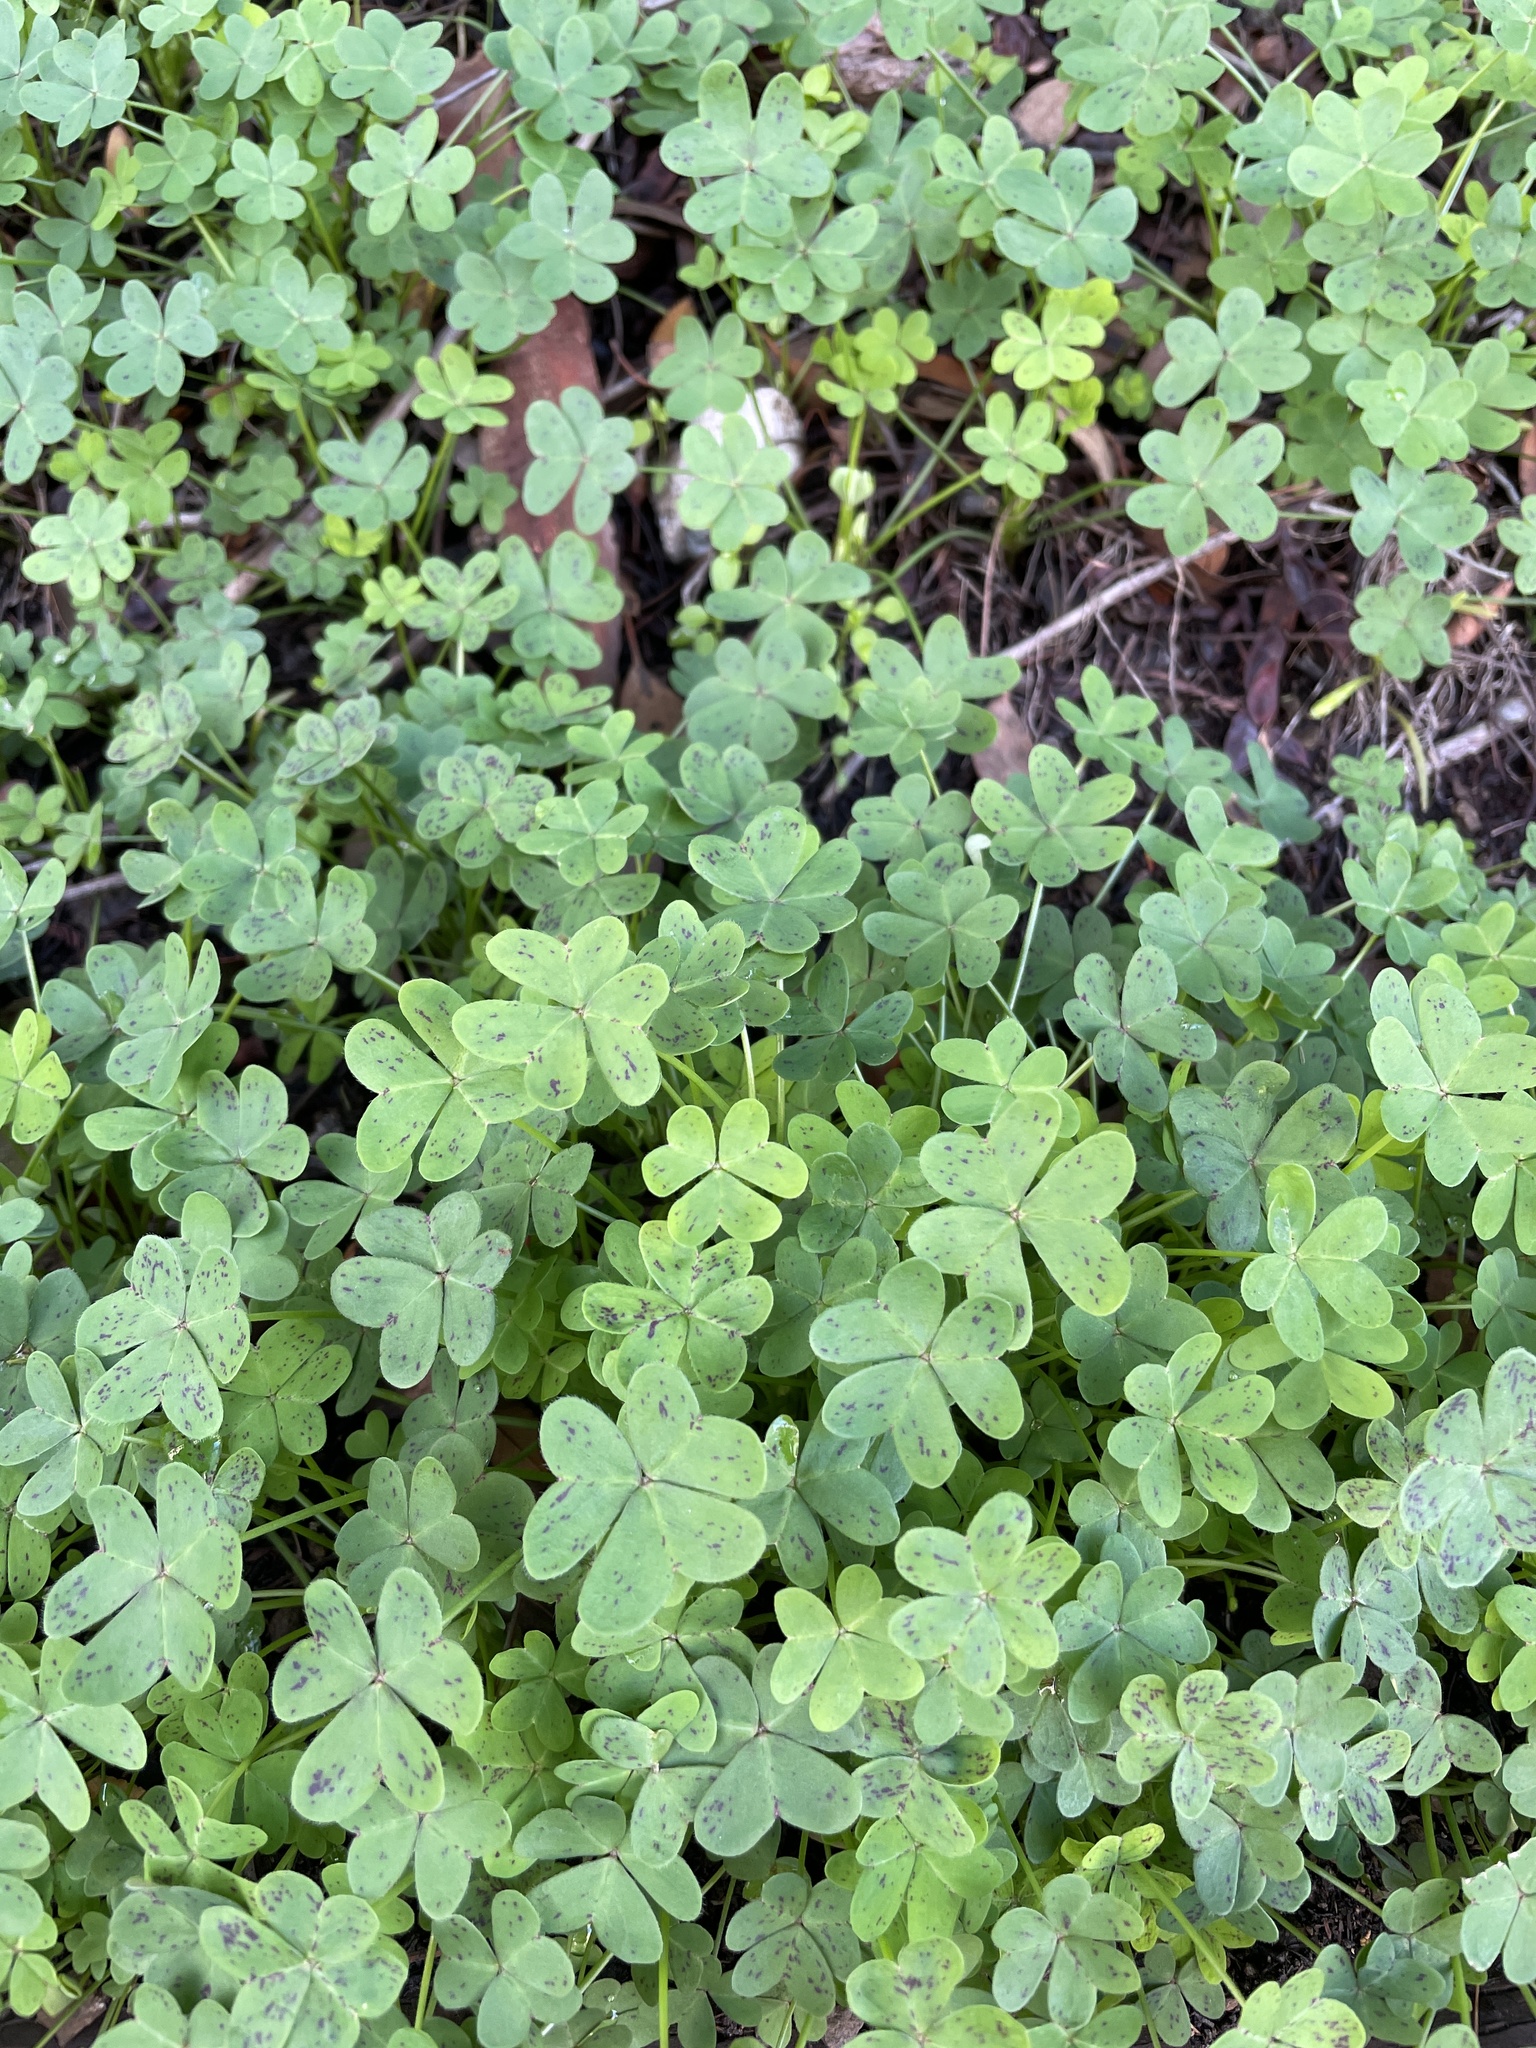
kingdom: Plantae
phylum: Tracheophyta
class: Magnoliopsida
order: Oxalidales
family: Oxalidaceae
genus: Oxalis
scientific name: Oxalis pes-caprae
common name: Bermuda-buttercup
